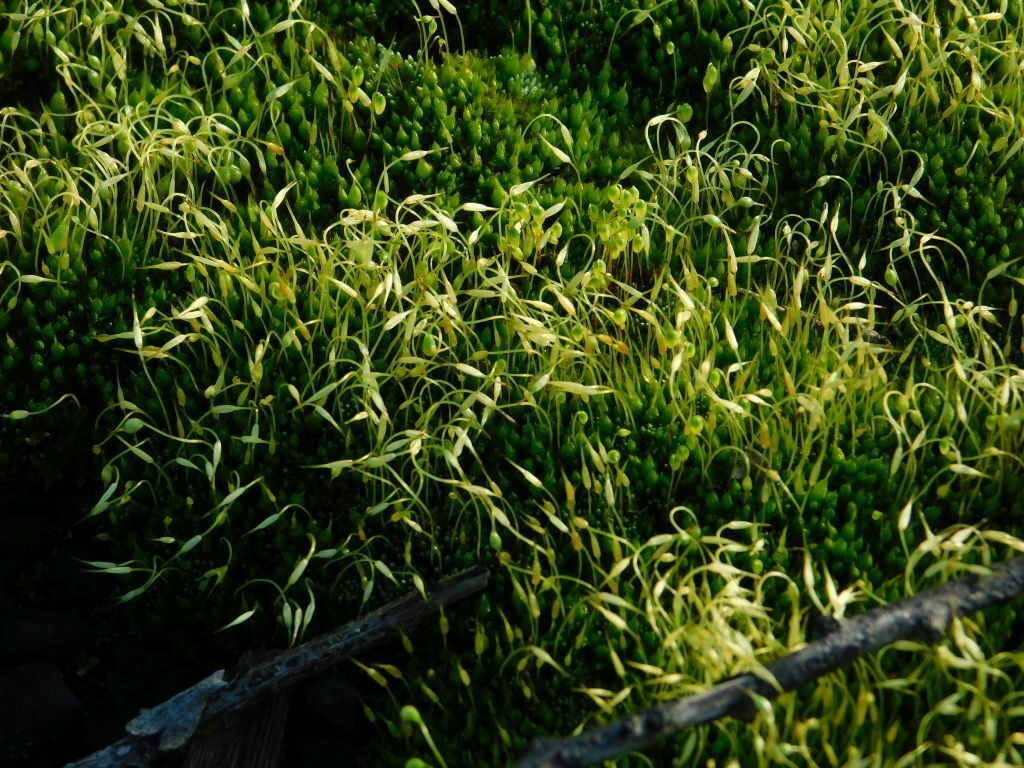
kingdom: Plantae
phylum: Bryophyta
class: Bryopsida
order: Funariales
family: Funariaceae
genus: Funaria
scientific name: Funaria hygrometrica
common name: Common cord moss
